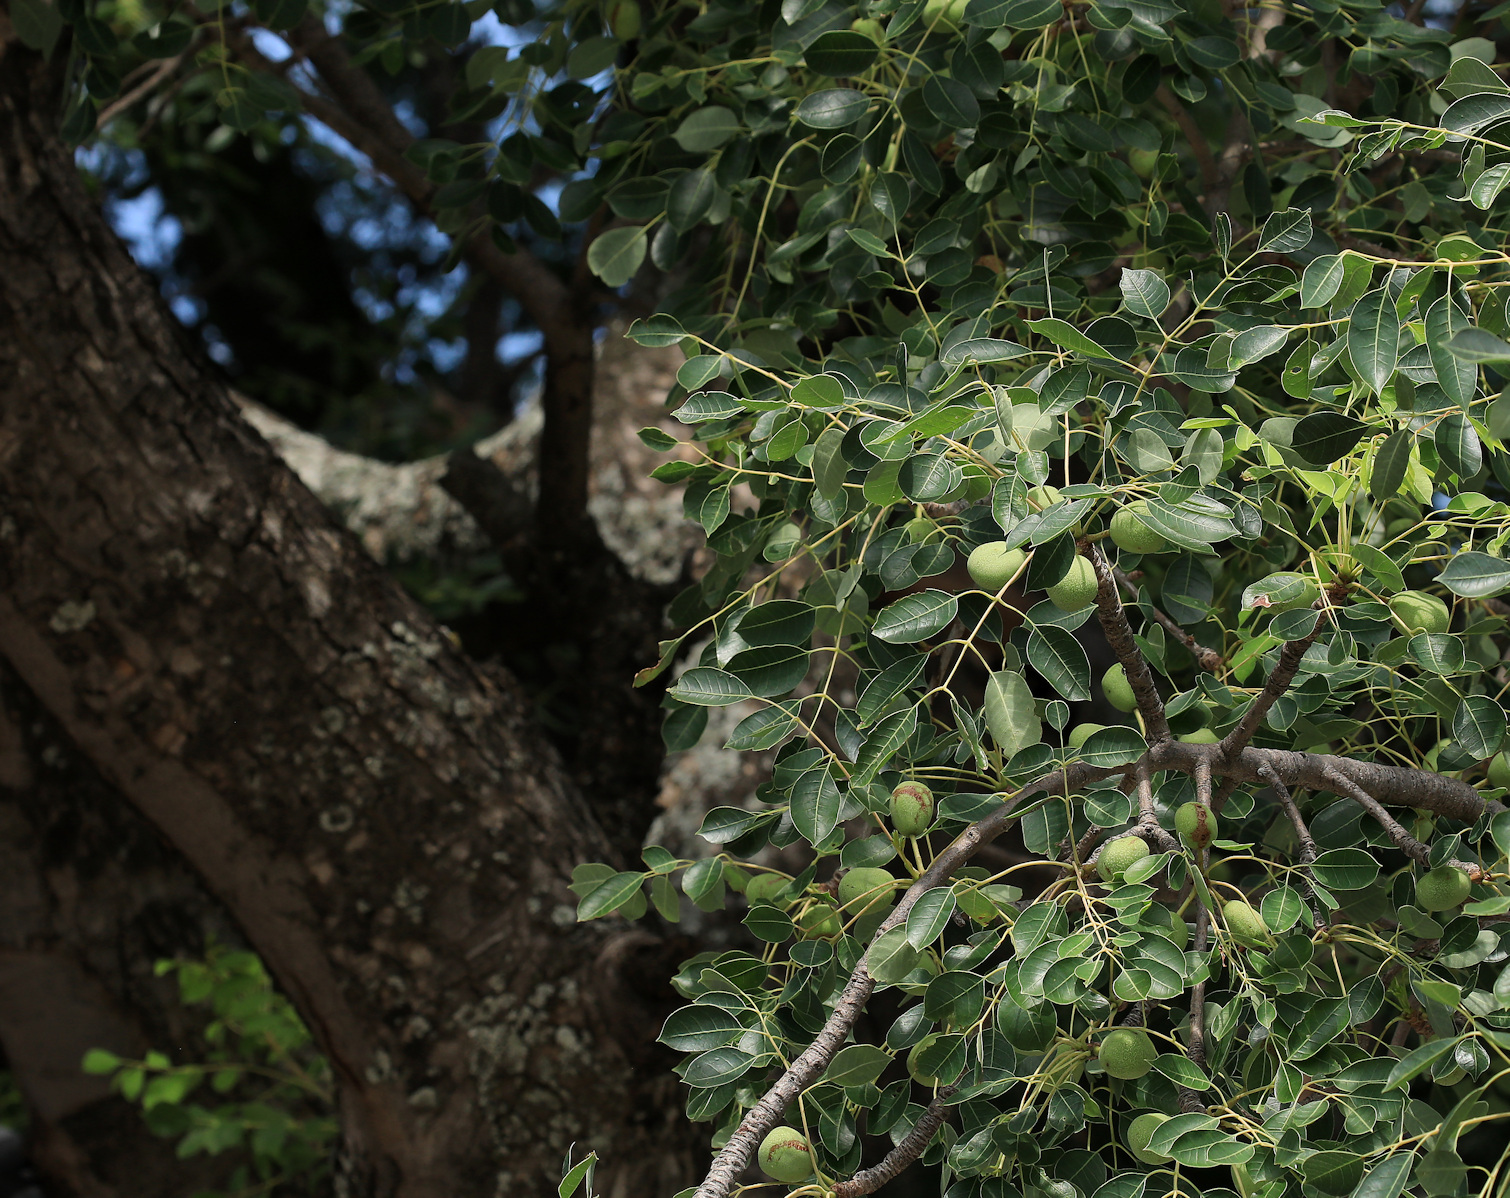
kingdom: Plantae
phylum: Tracheophyta
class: Magnoliopsida
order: Sapindales
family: Anacardiaceae
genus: Sclerocarya
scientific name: Sclerocarya birrea
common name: Marula
